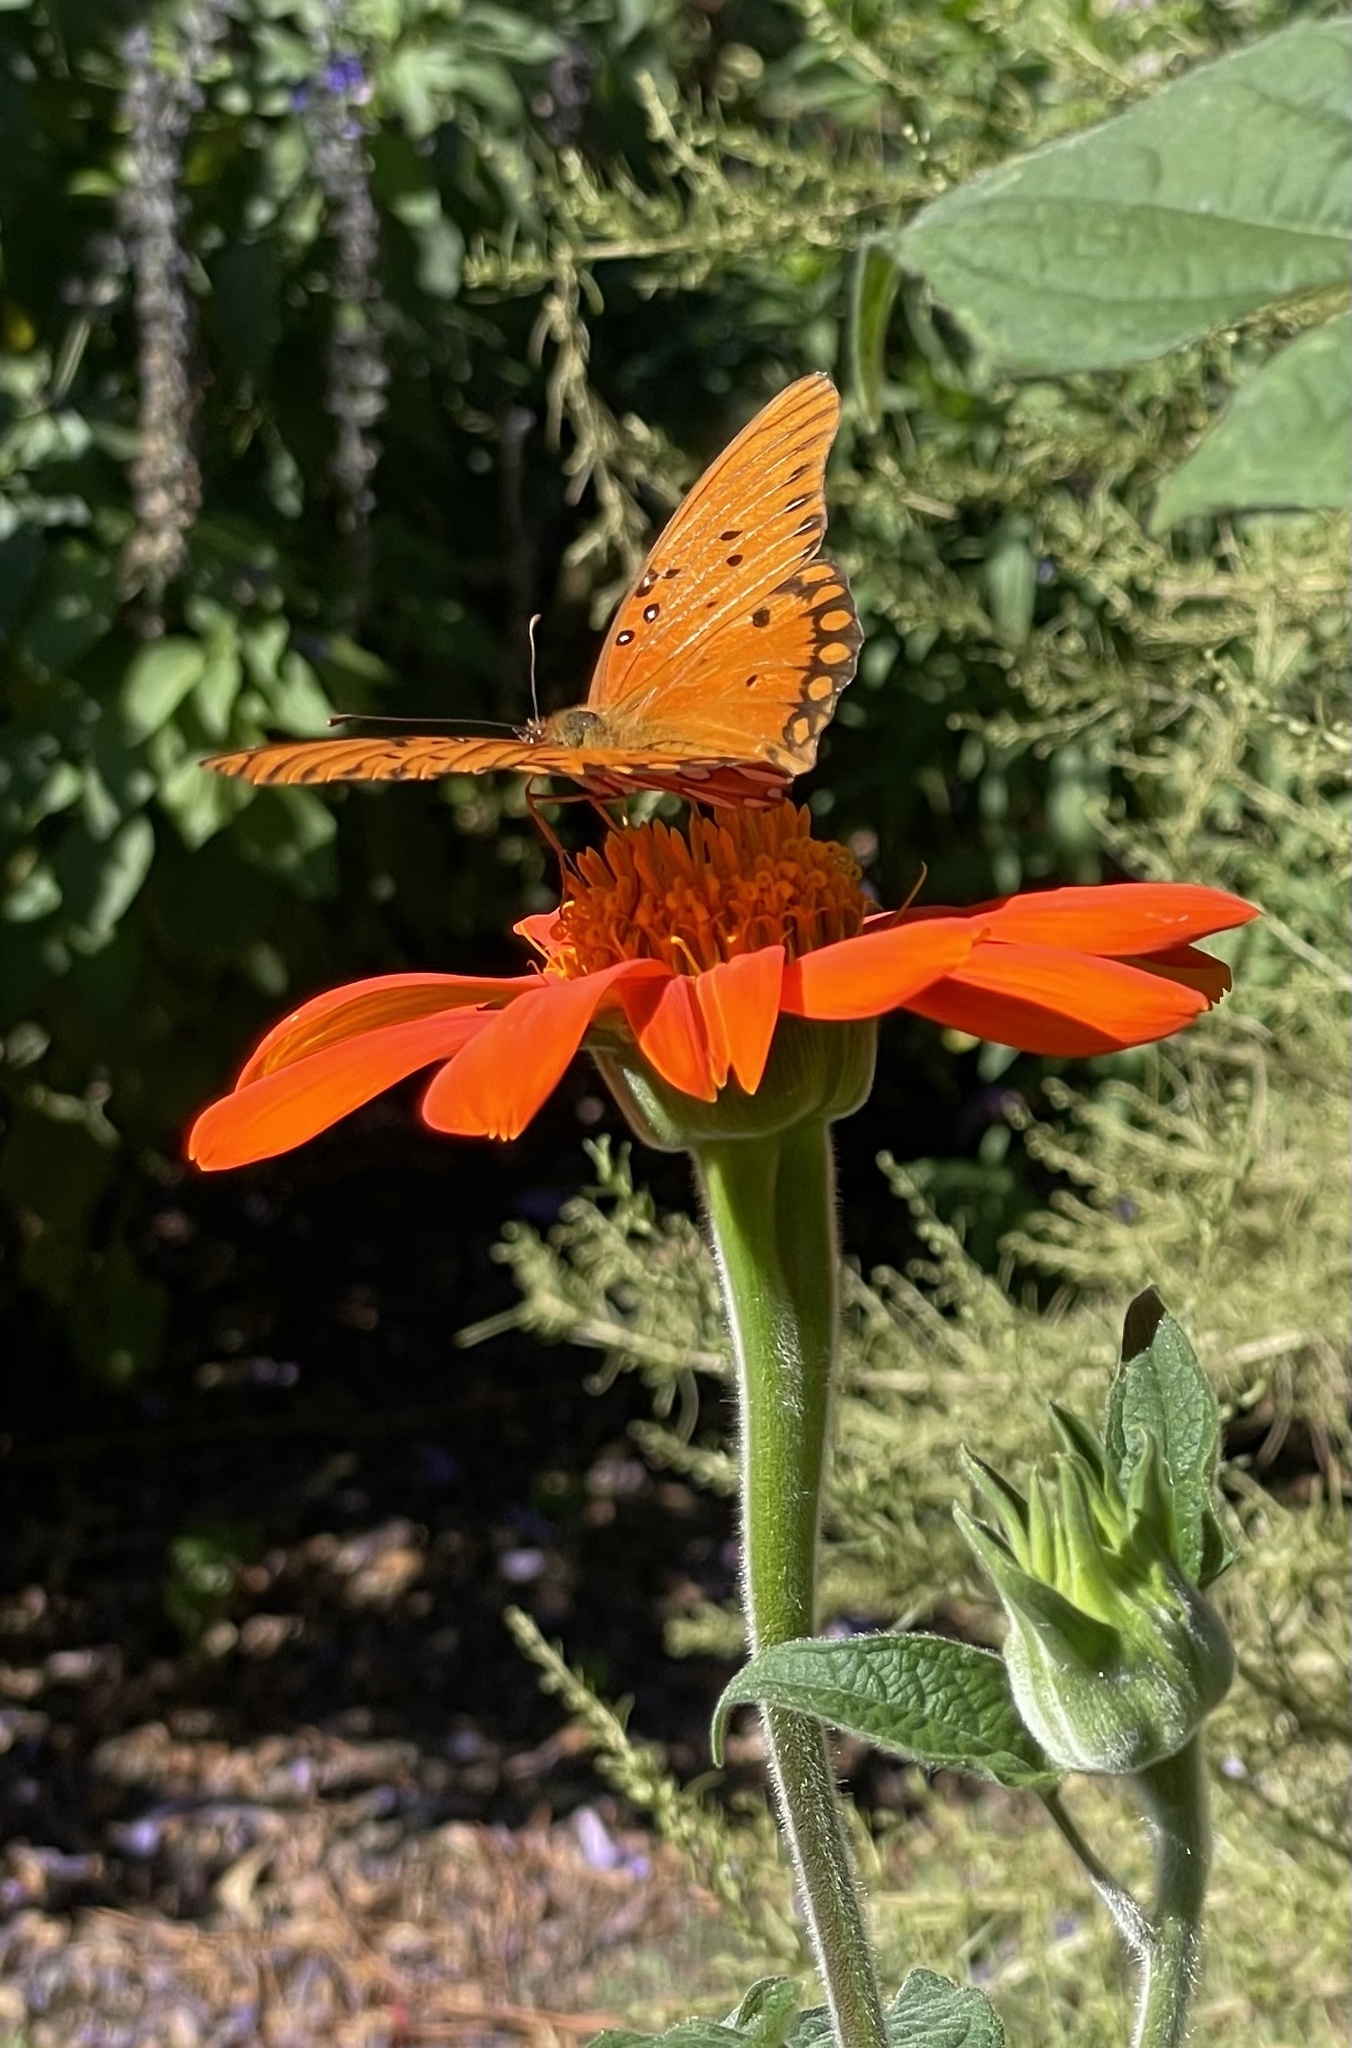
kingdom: Animalia
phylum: Arthropoda
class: Insecta
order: Lepidoptera
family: Nymphalidae
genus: Dione
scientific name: Dione vanillae
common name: Gulf fritillary
